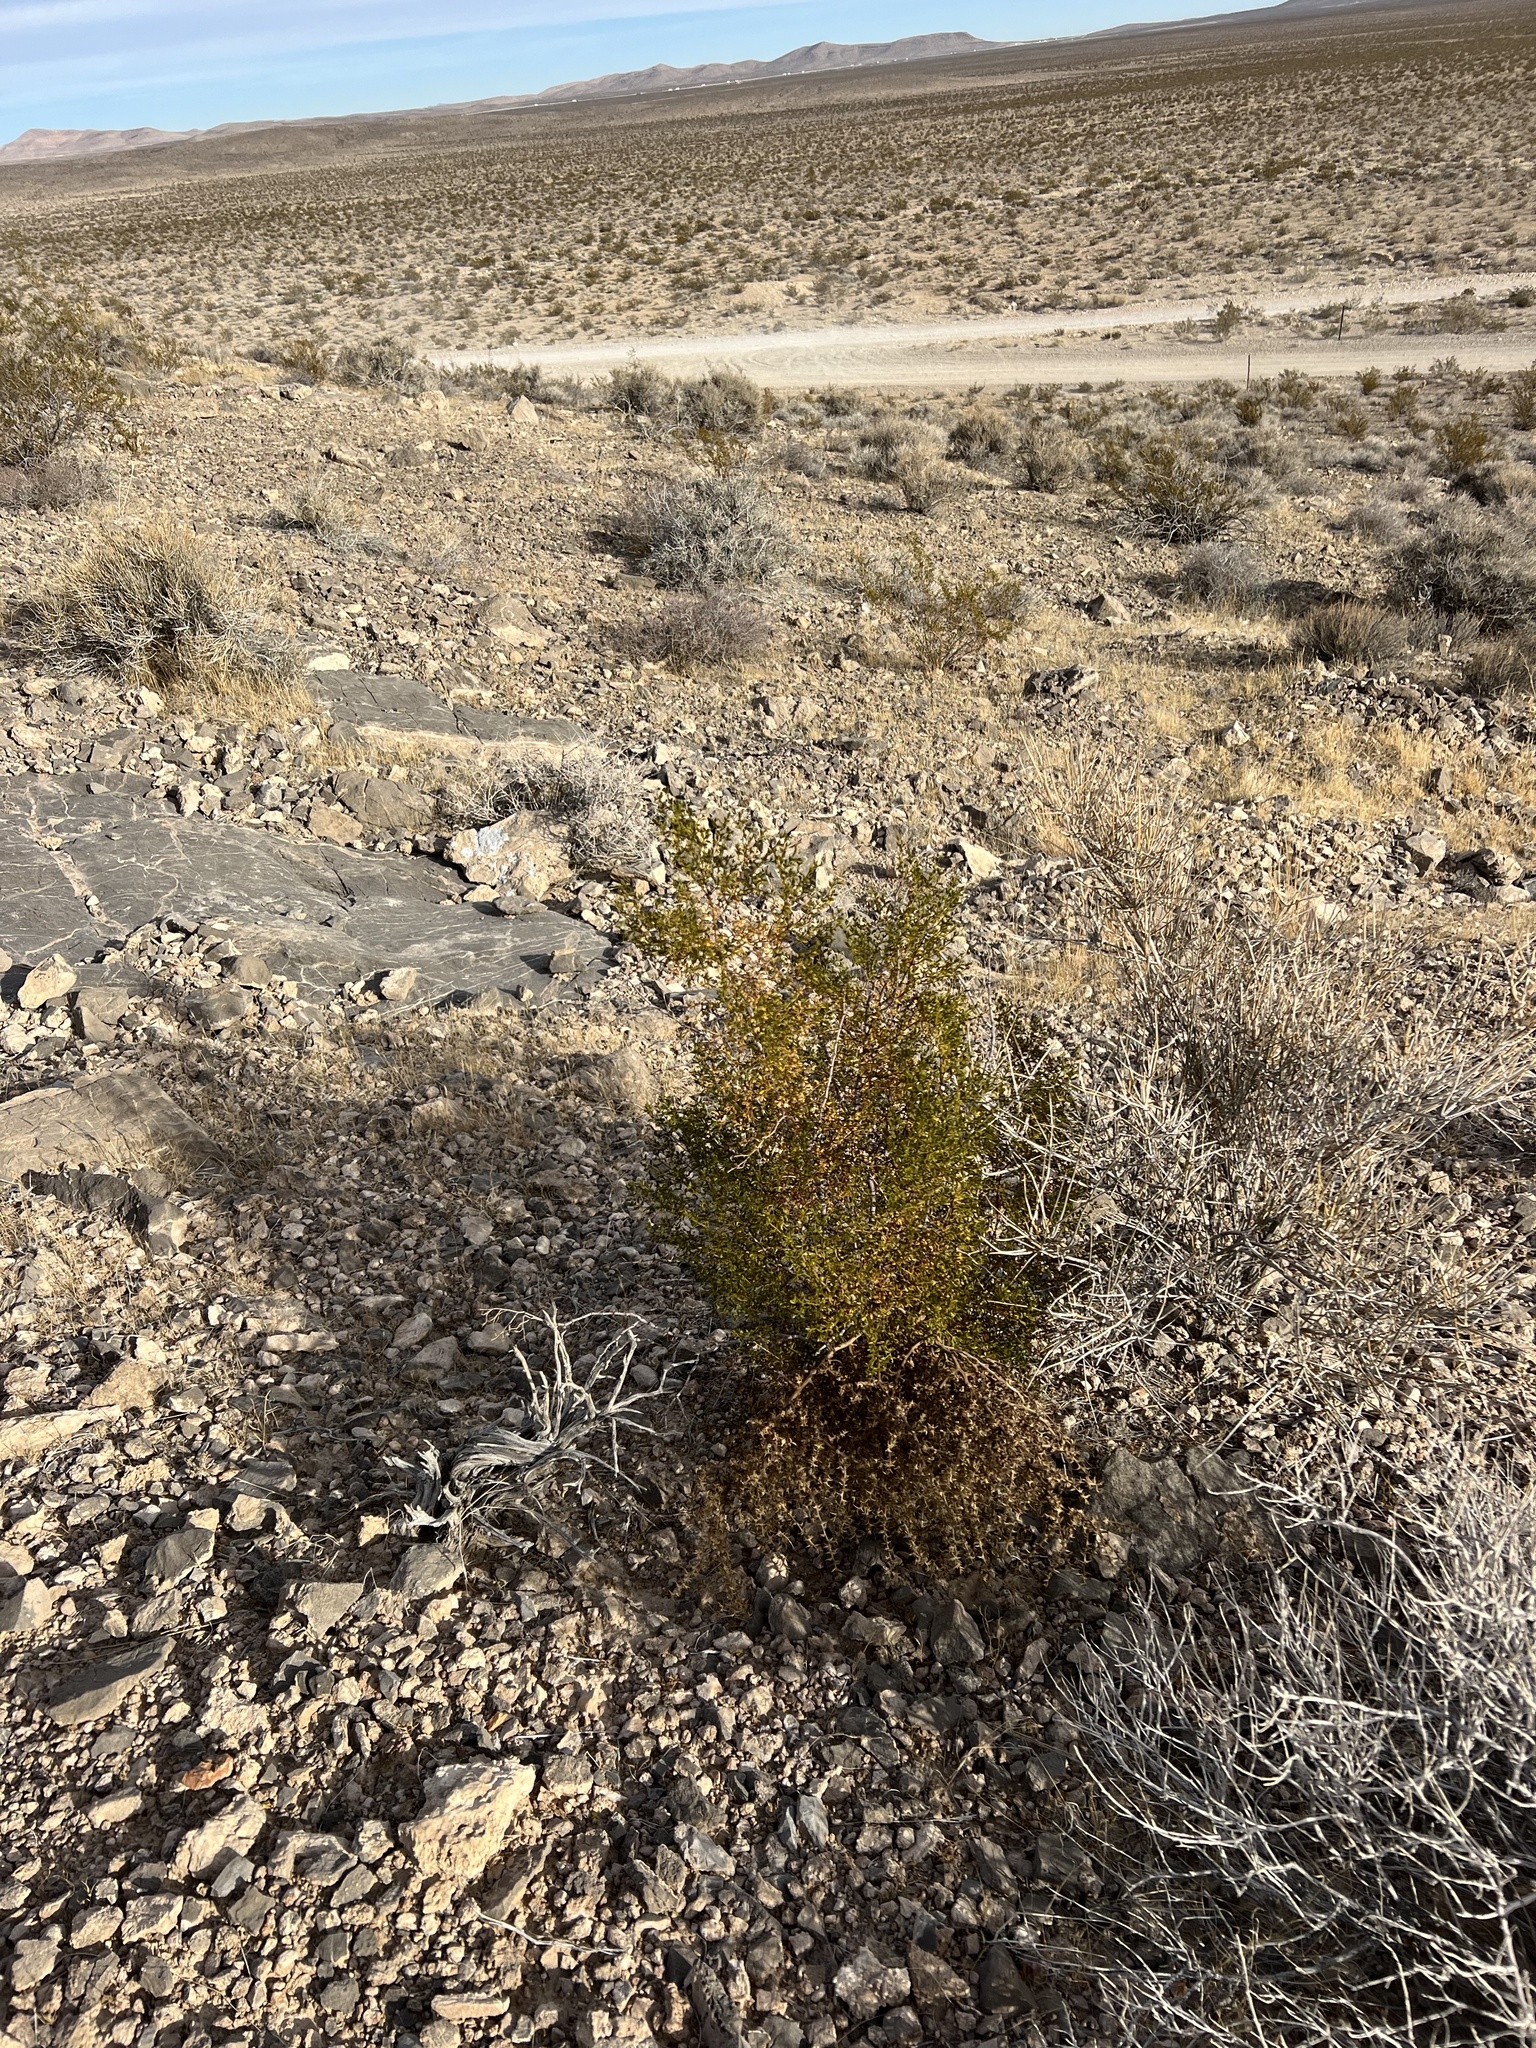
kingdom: Plantae
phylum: Tracheophyta
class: Magnoliopsida
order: Zygophyllales
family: Zygophyllaceae
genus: Larrea
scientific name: Larrea tridentata
